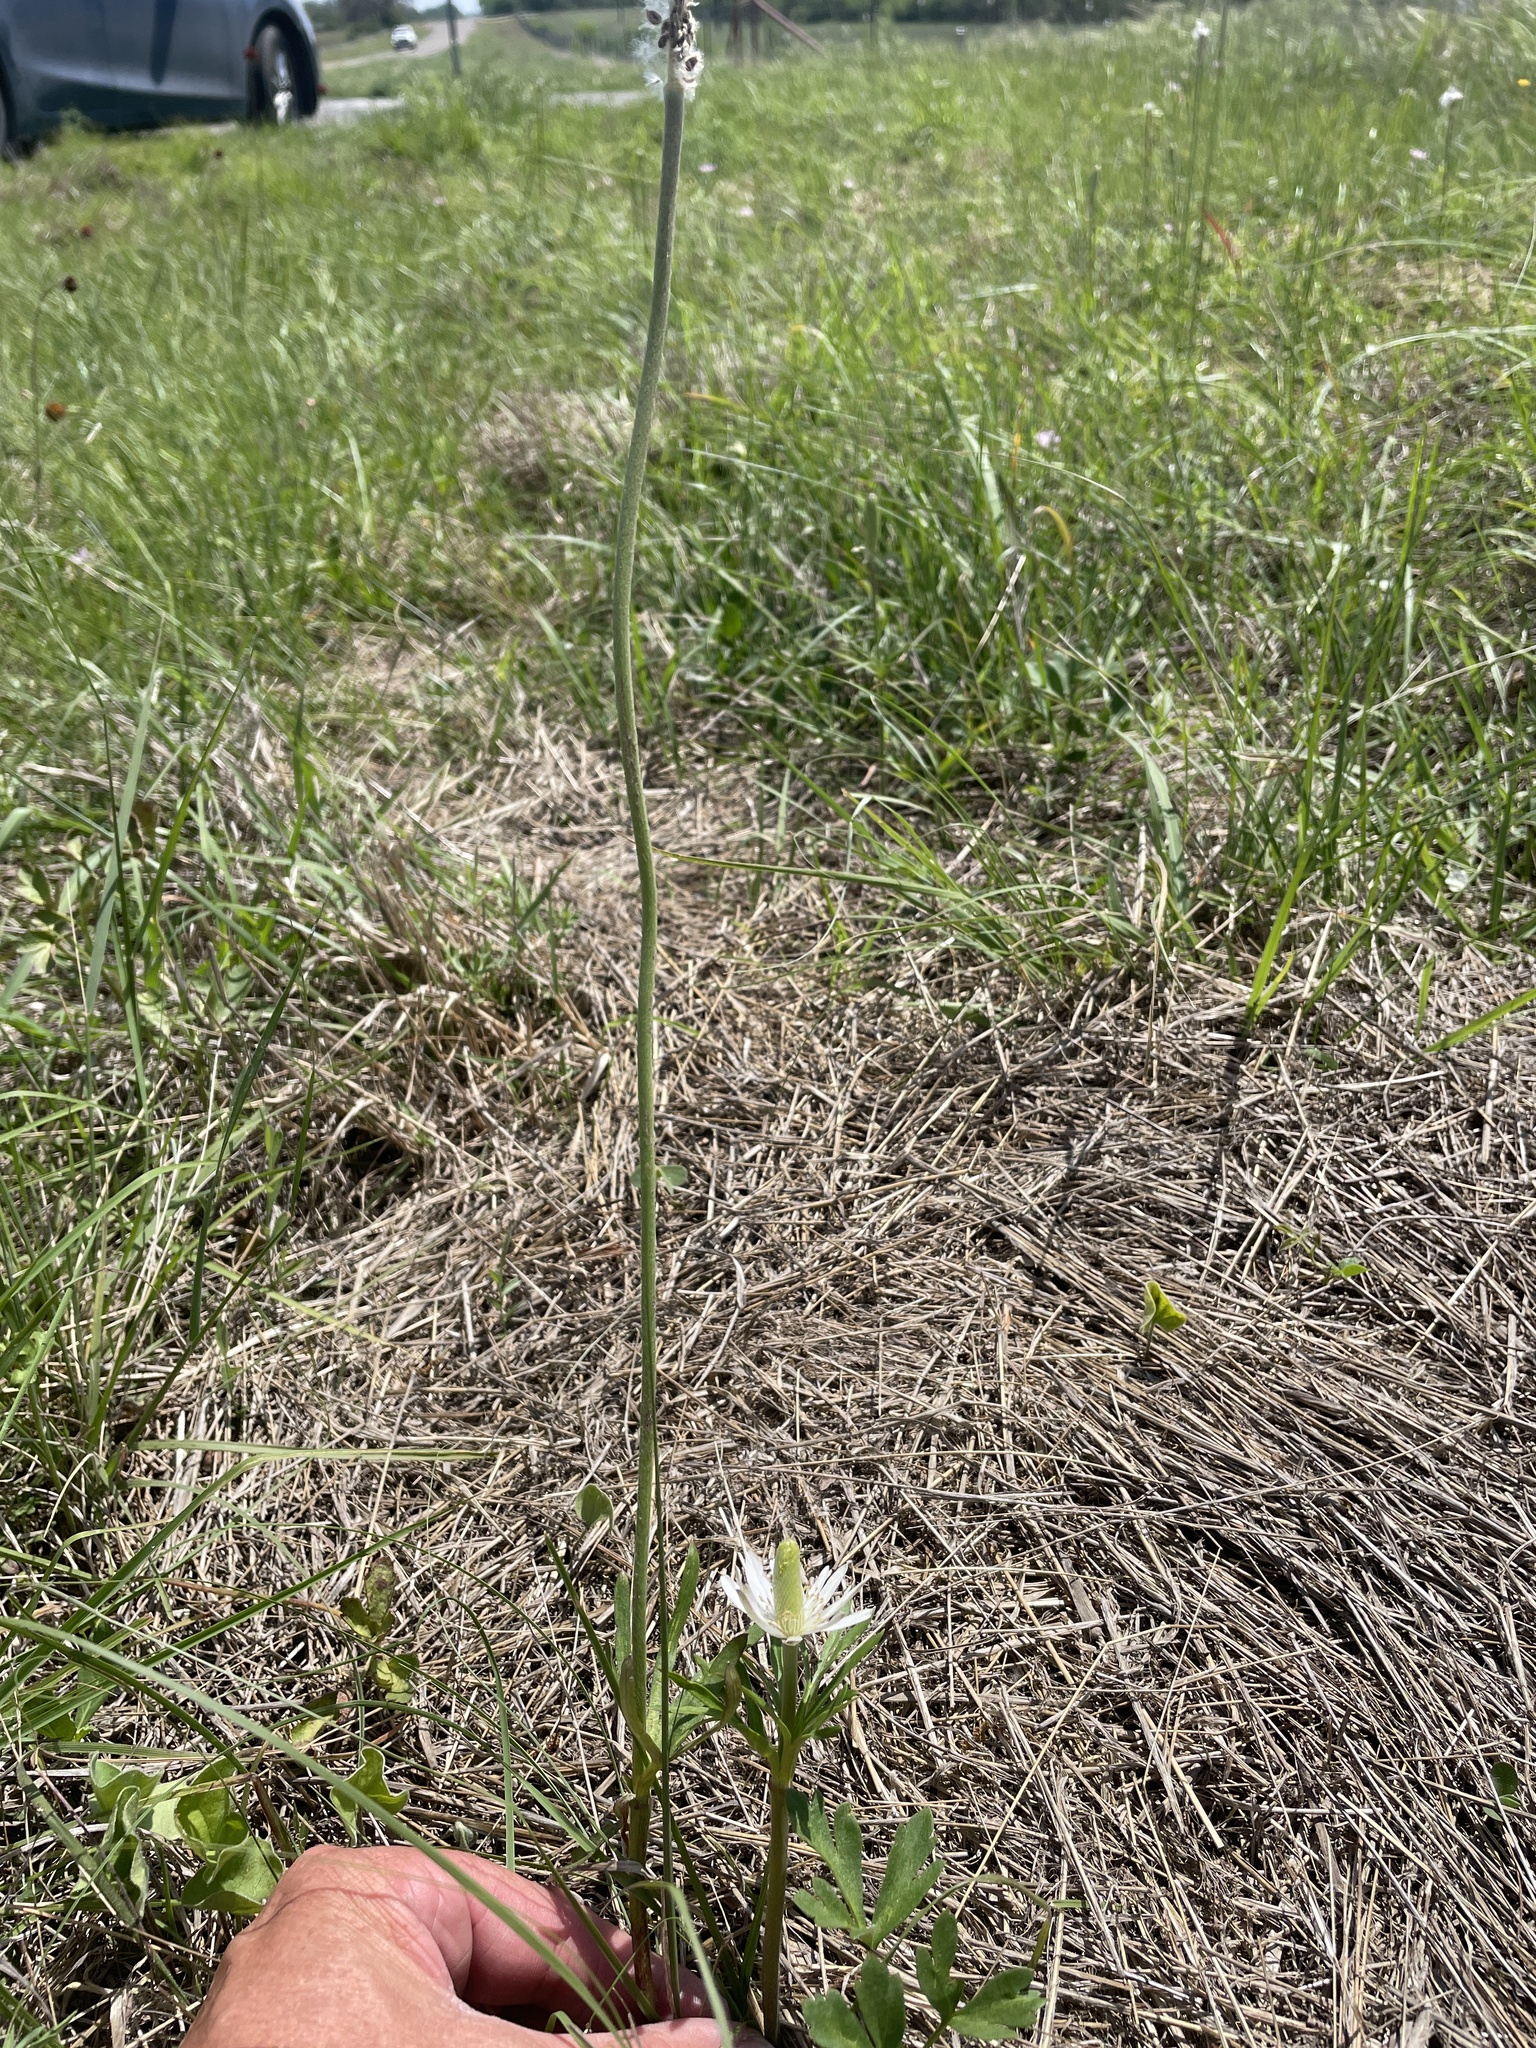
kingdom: Plantae
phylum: Tracheophyta
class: Magnoliopsida
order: Ranunculales
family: Ranunculaceae
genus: Anemone
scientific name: Anemone berlandieri
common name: Ten-petal anemone
